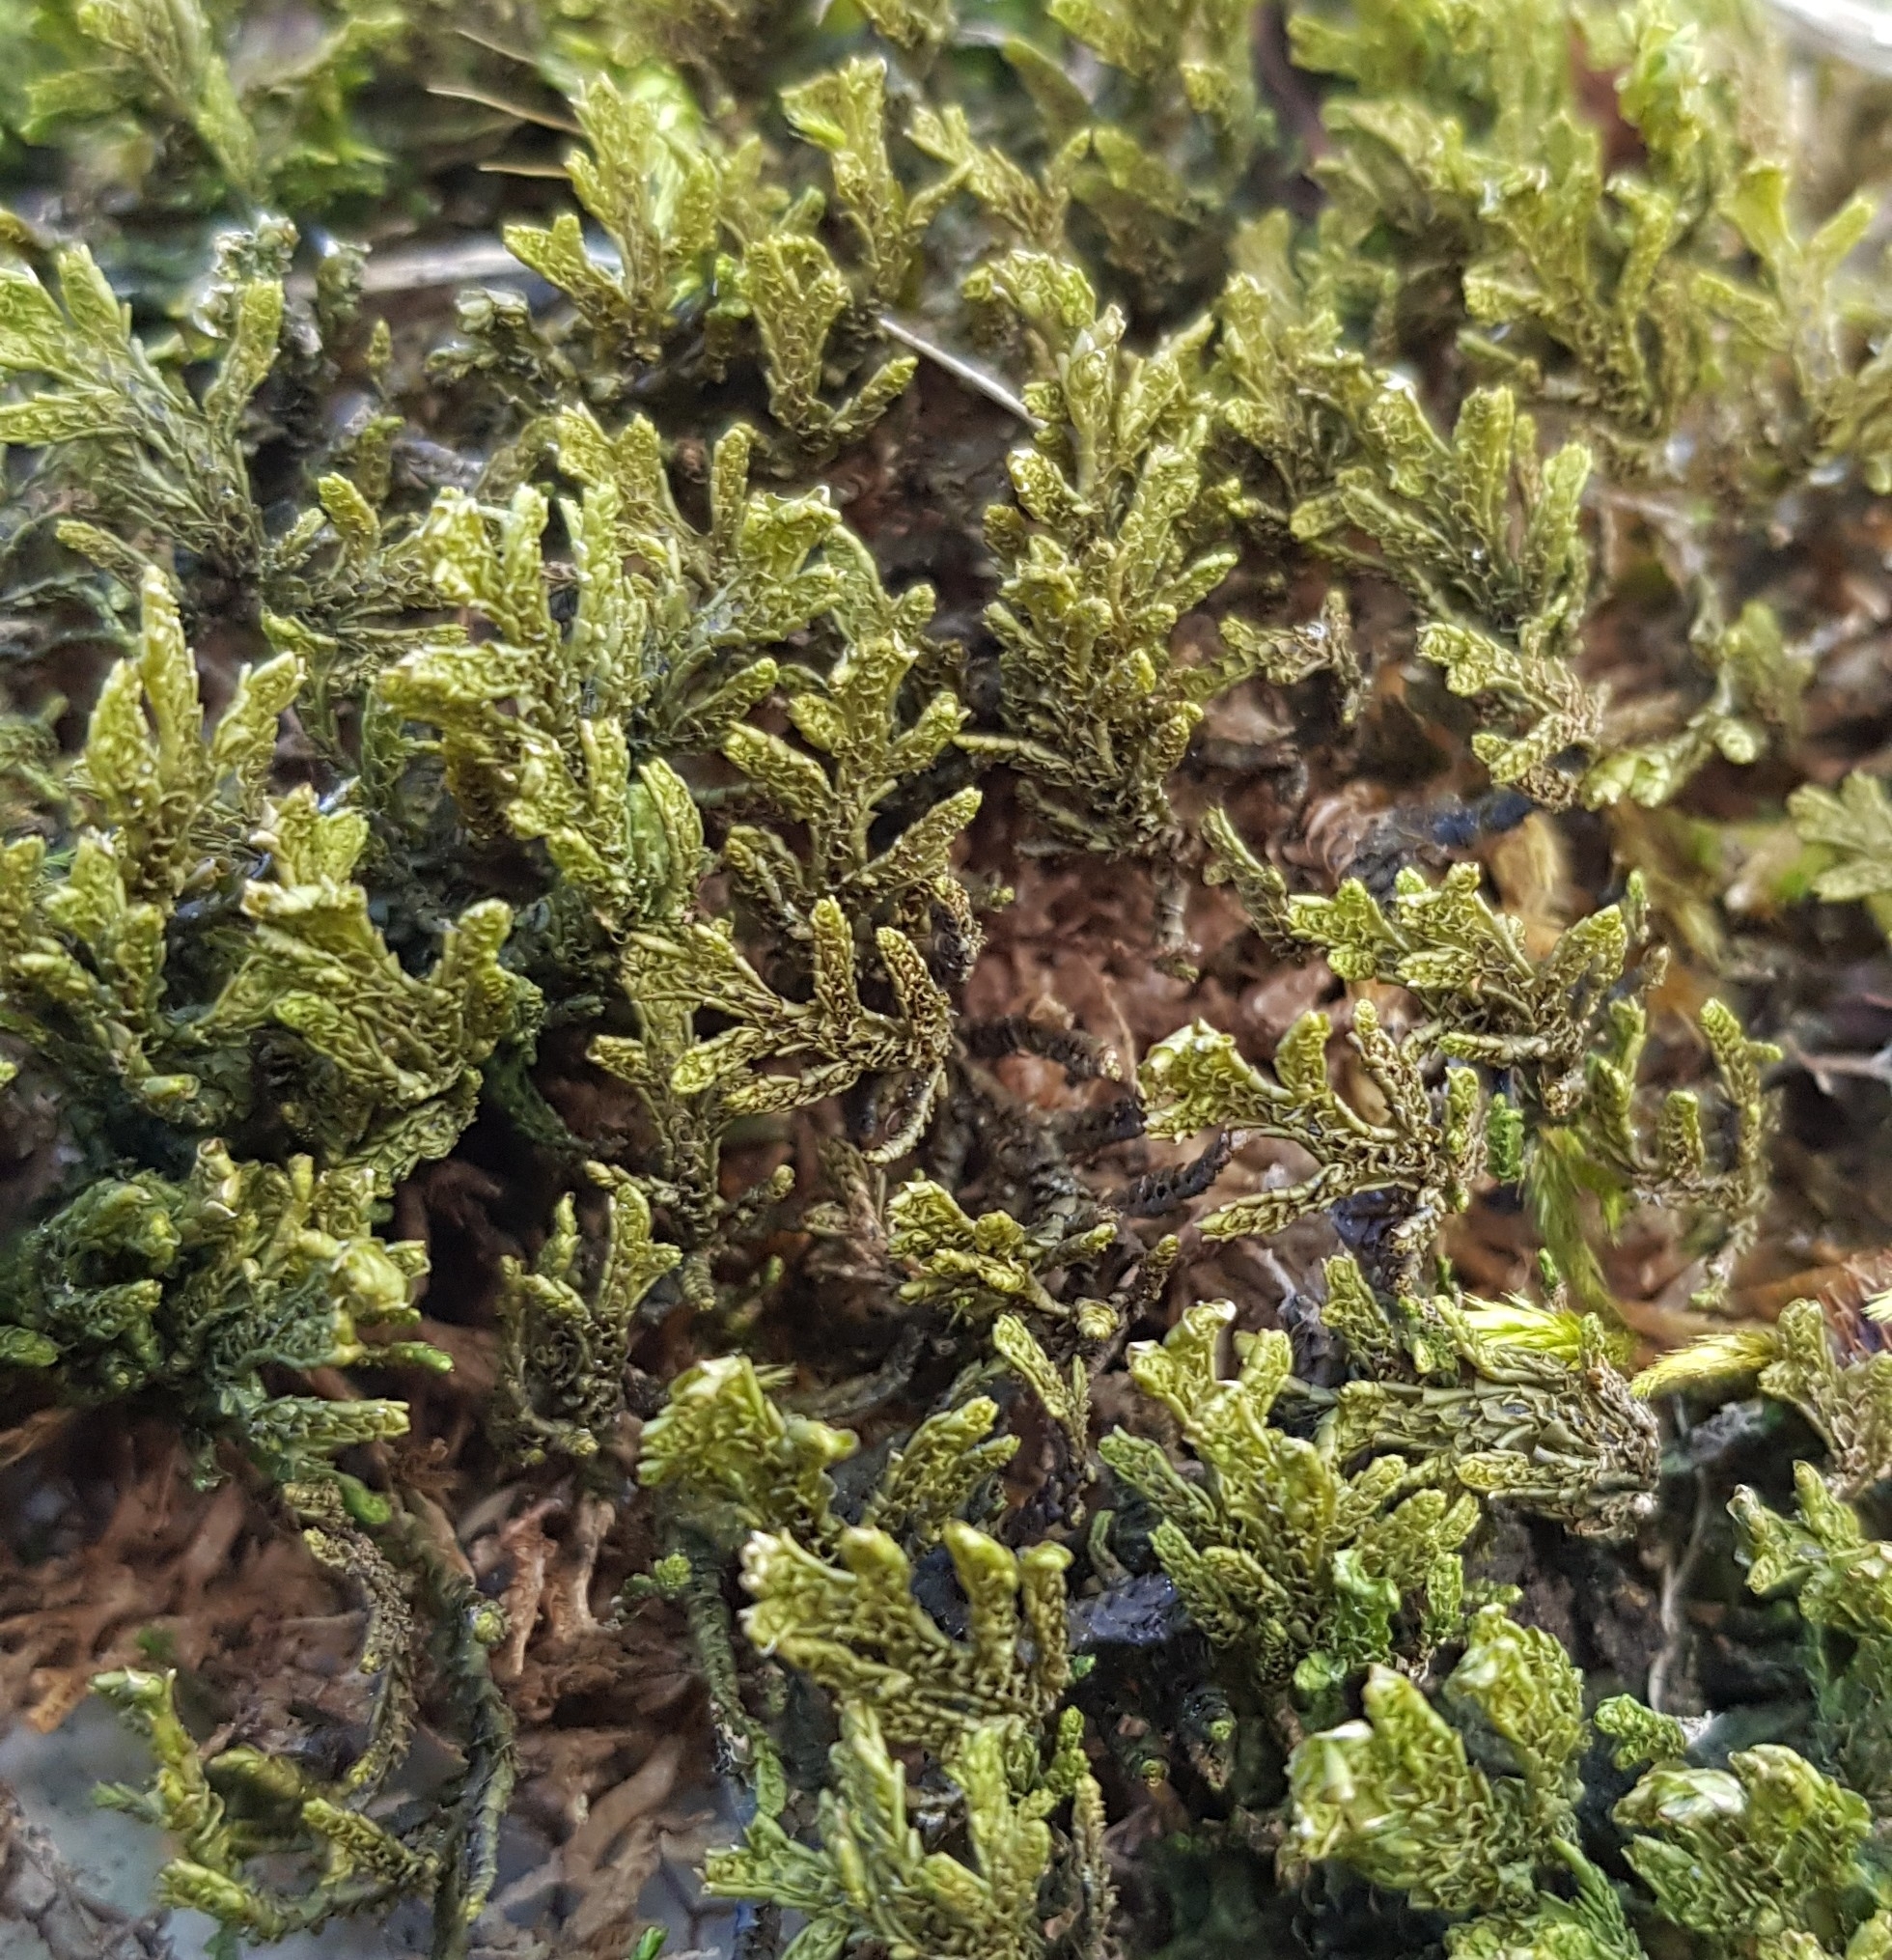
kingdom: Plantae
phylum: Marchantiophyta
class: Jungermanniopsida
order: Porellales
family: Porellaceae
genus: Porella
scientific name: Porella platyphylla
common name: Wall scalewort
